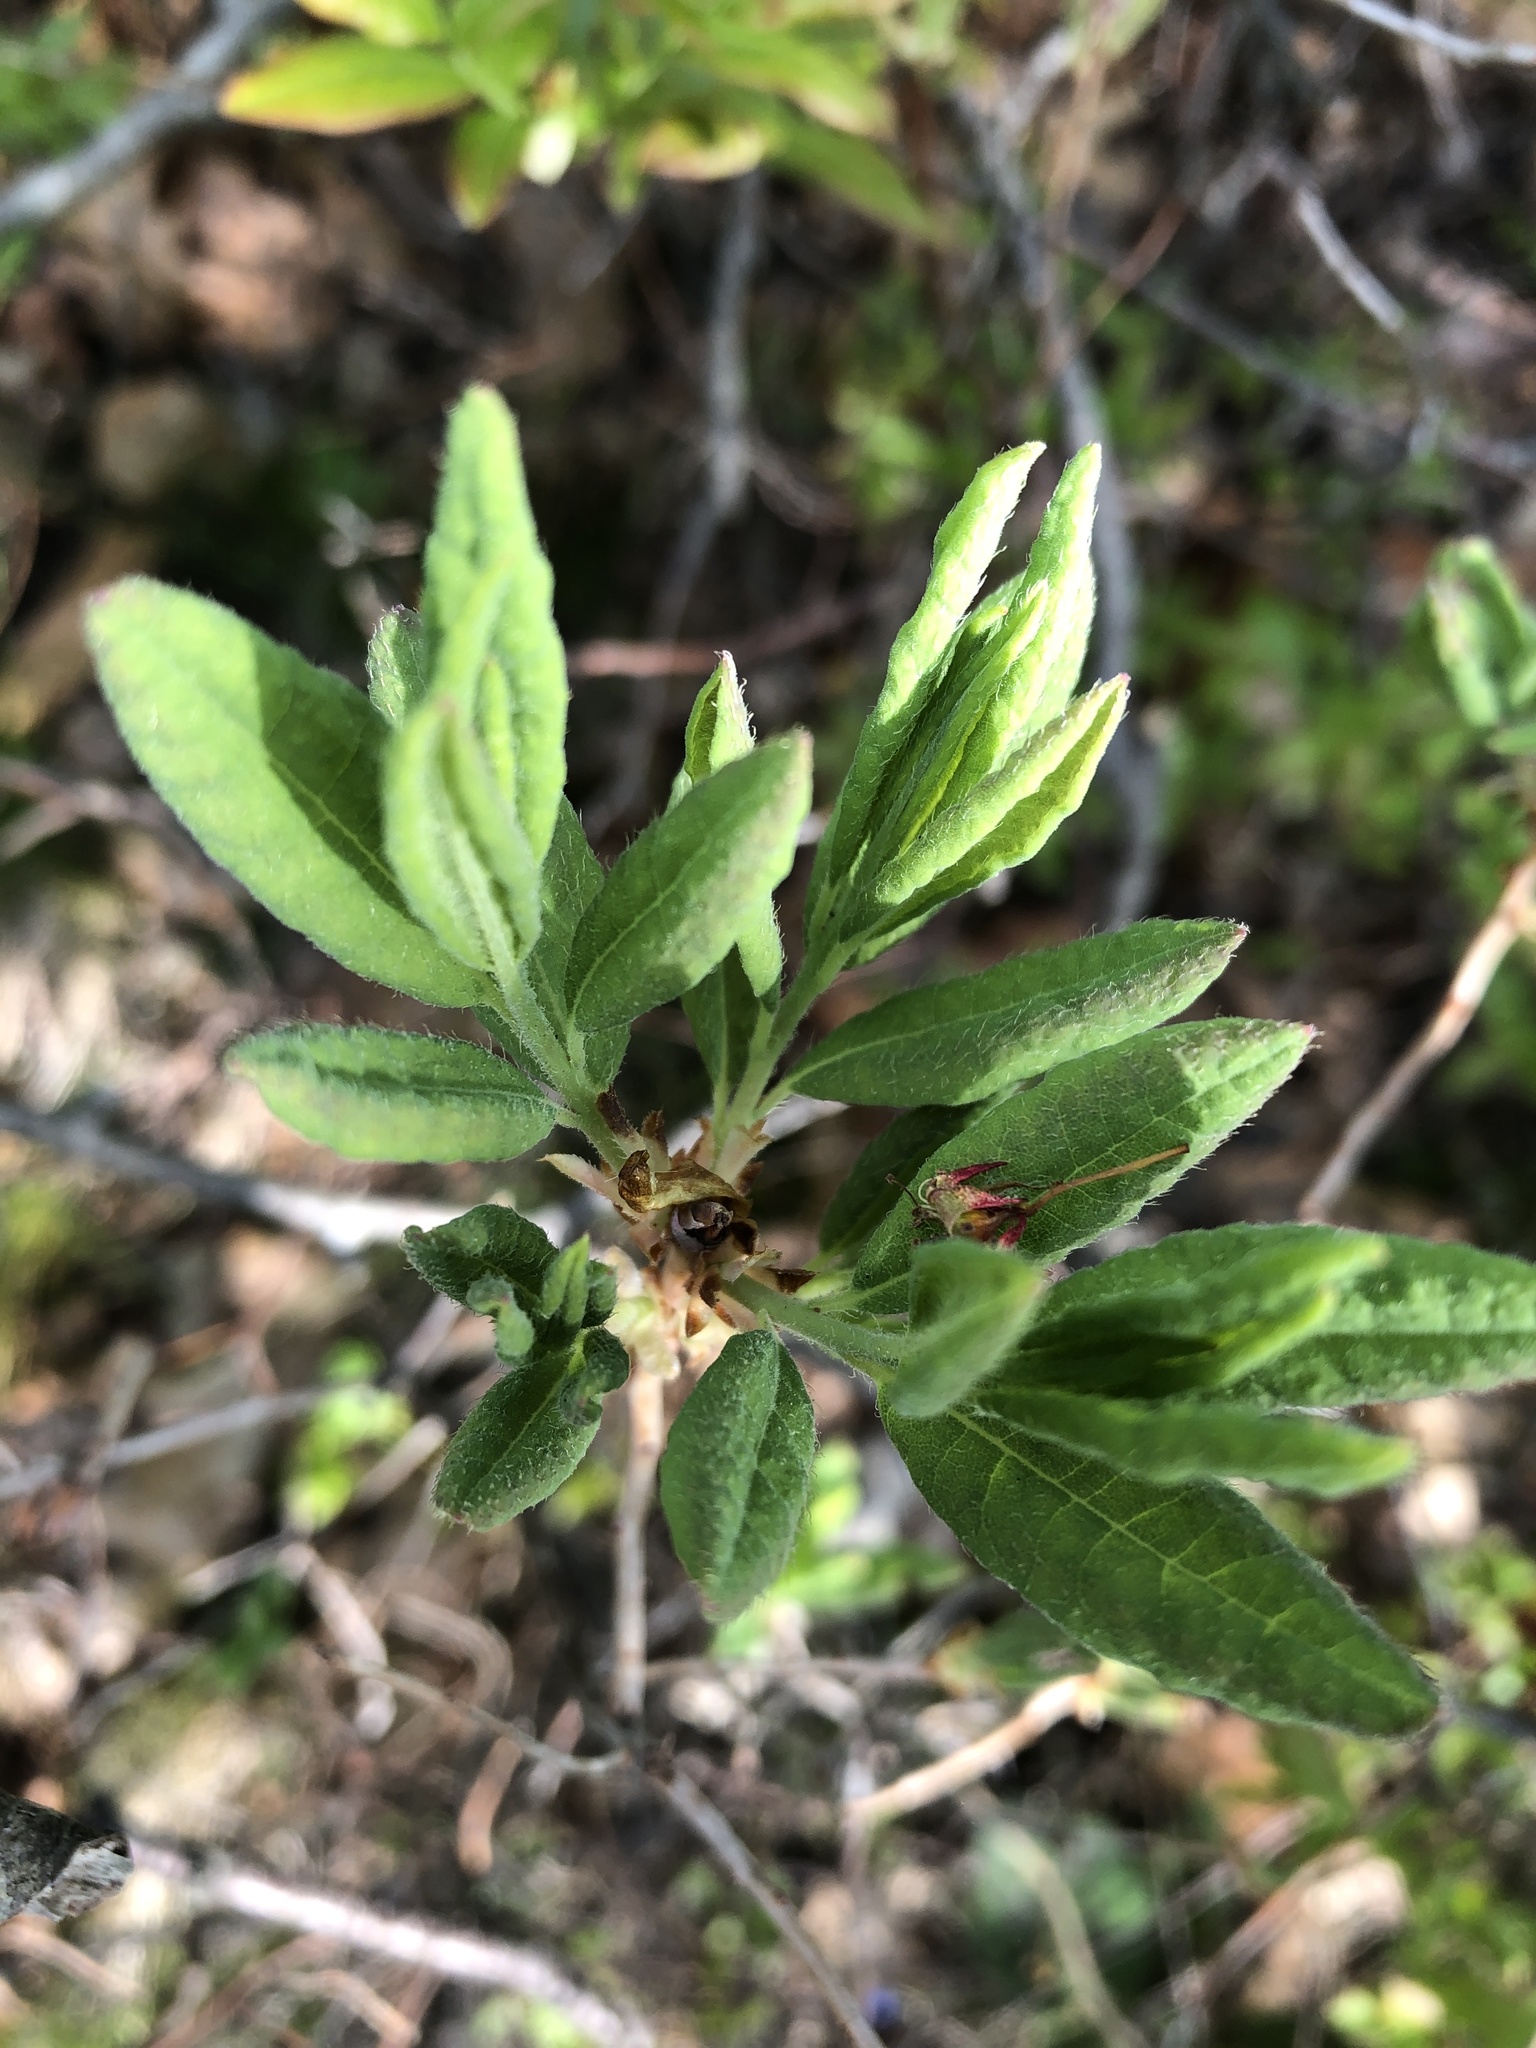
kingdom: Plantae
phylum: Tracheophyta
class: Magnoliopsida
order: Ericales
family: Ericaceae
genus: Rhododendron
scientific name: Rhododendron canadense
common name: Rhodora
